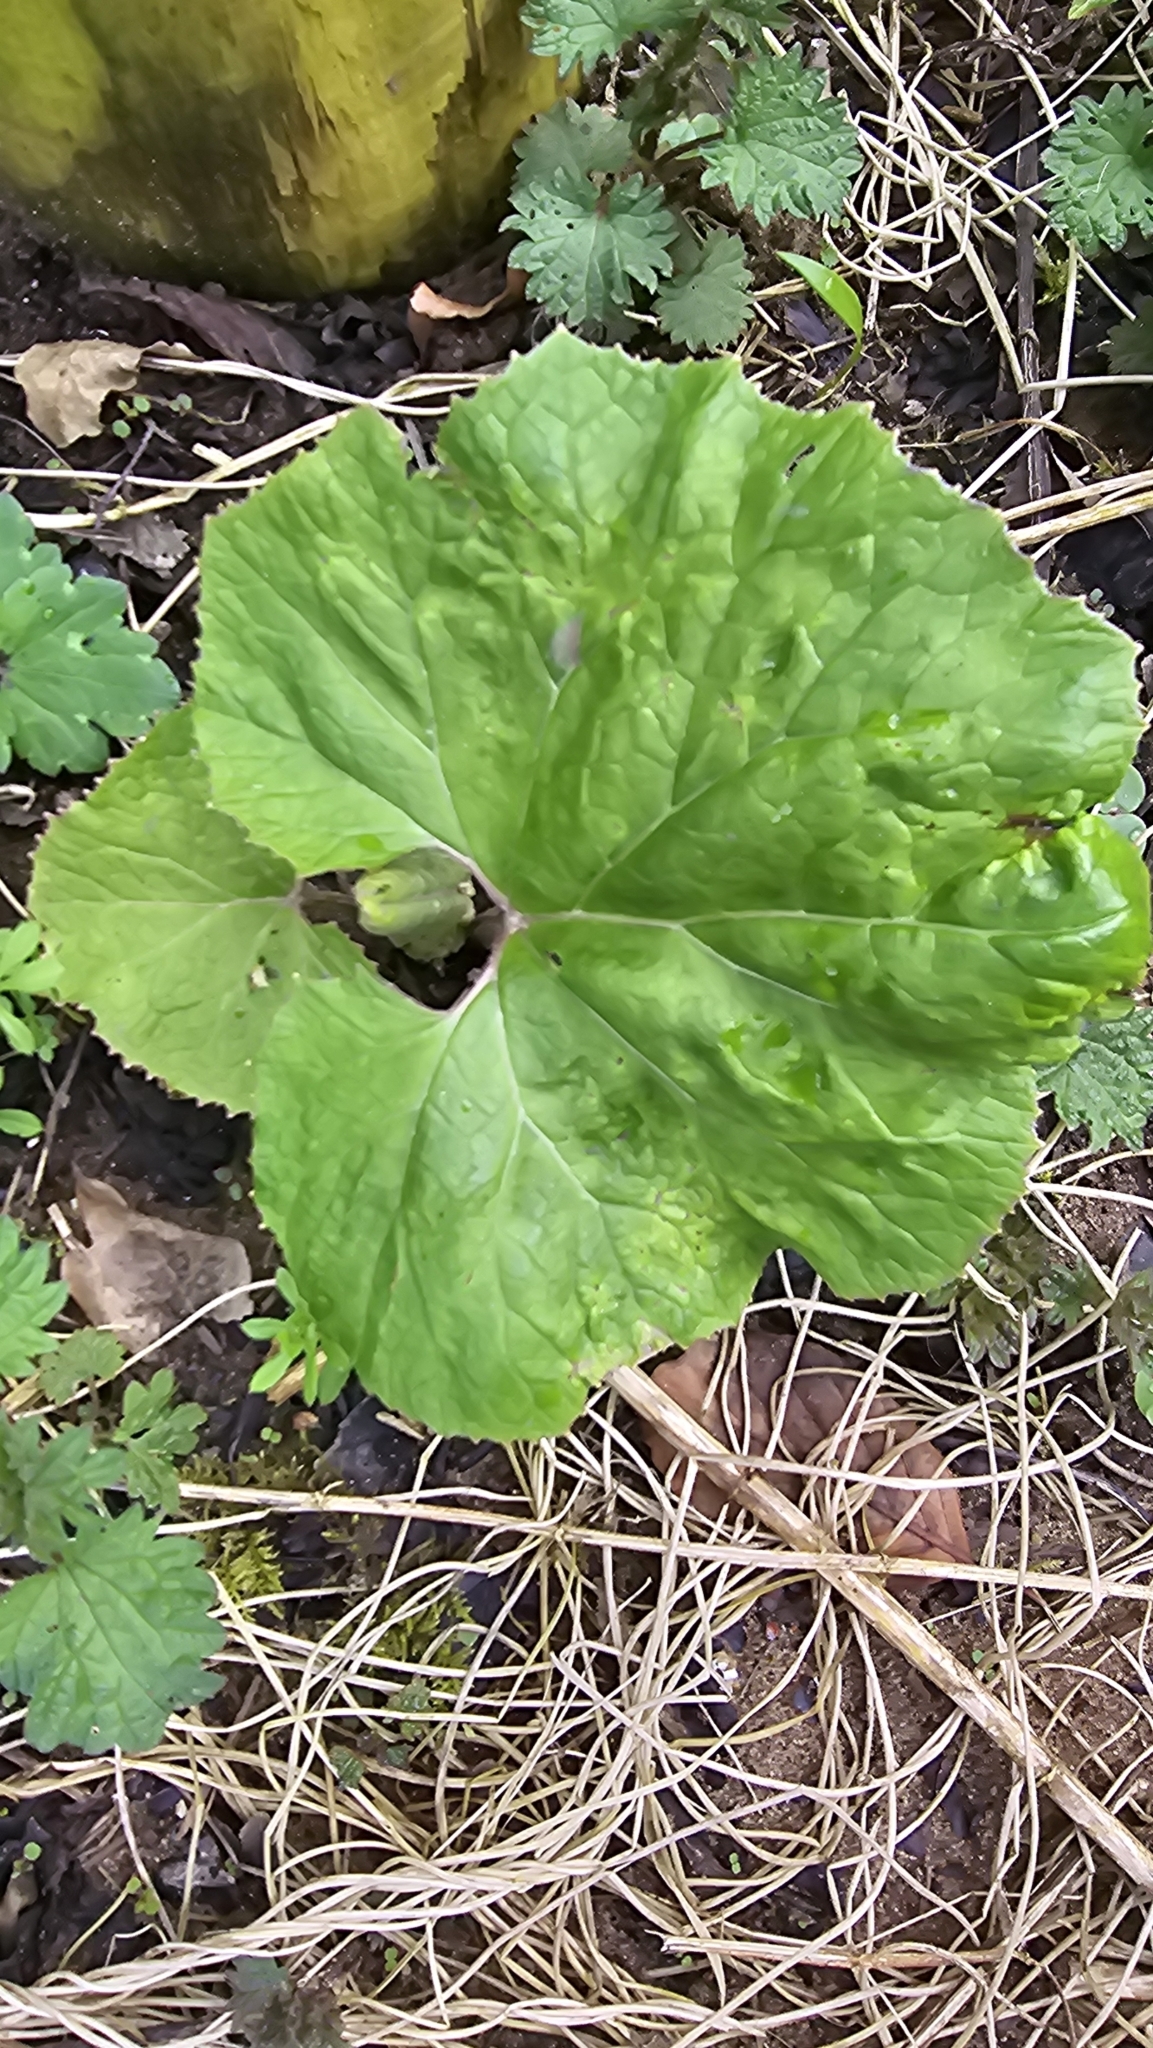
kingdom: Plantae
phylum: Tracheophyta
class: Magnoliopsida
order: Asterales
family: Asteraceae
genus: Petasites
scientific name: Petasites hybridus
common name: Butterbur
